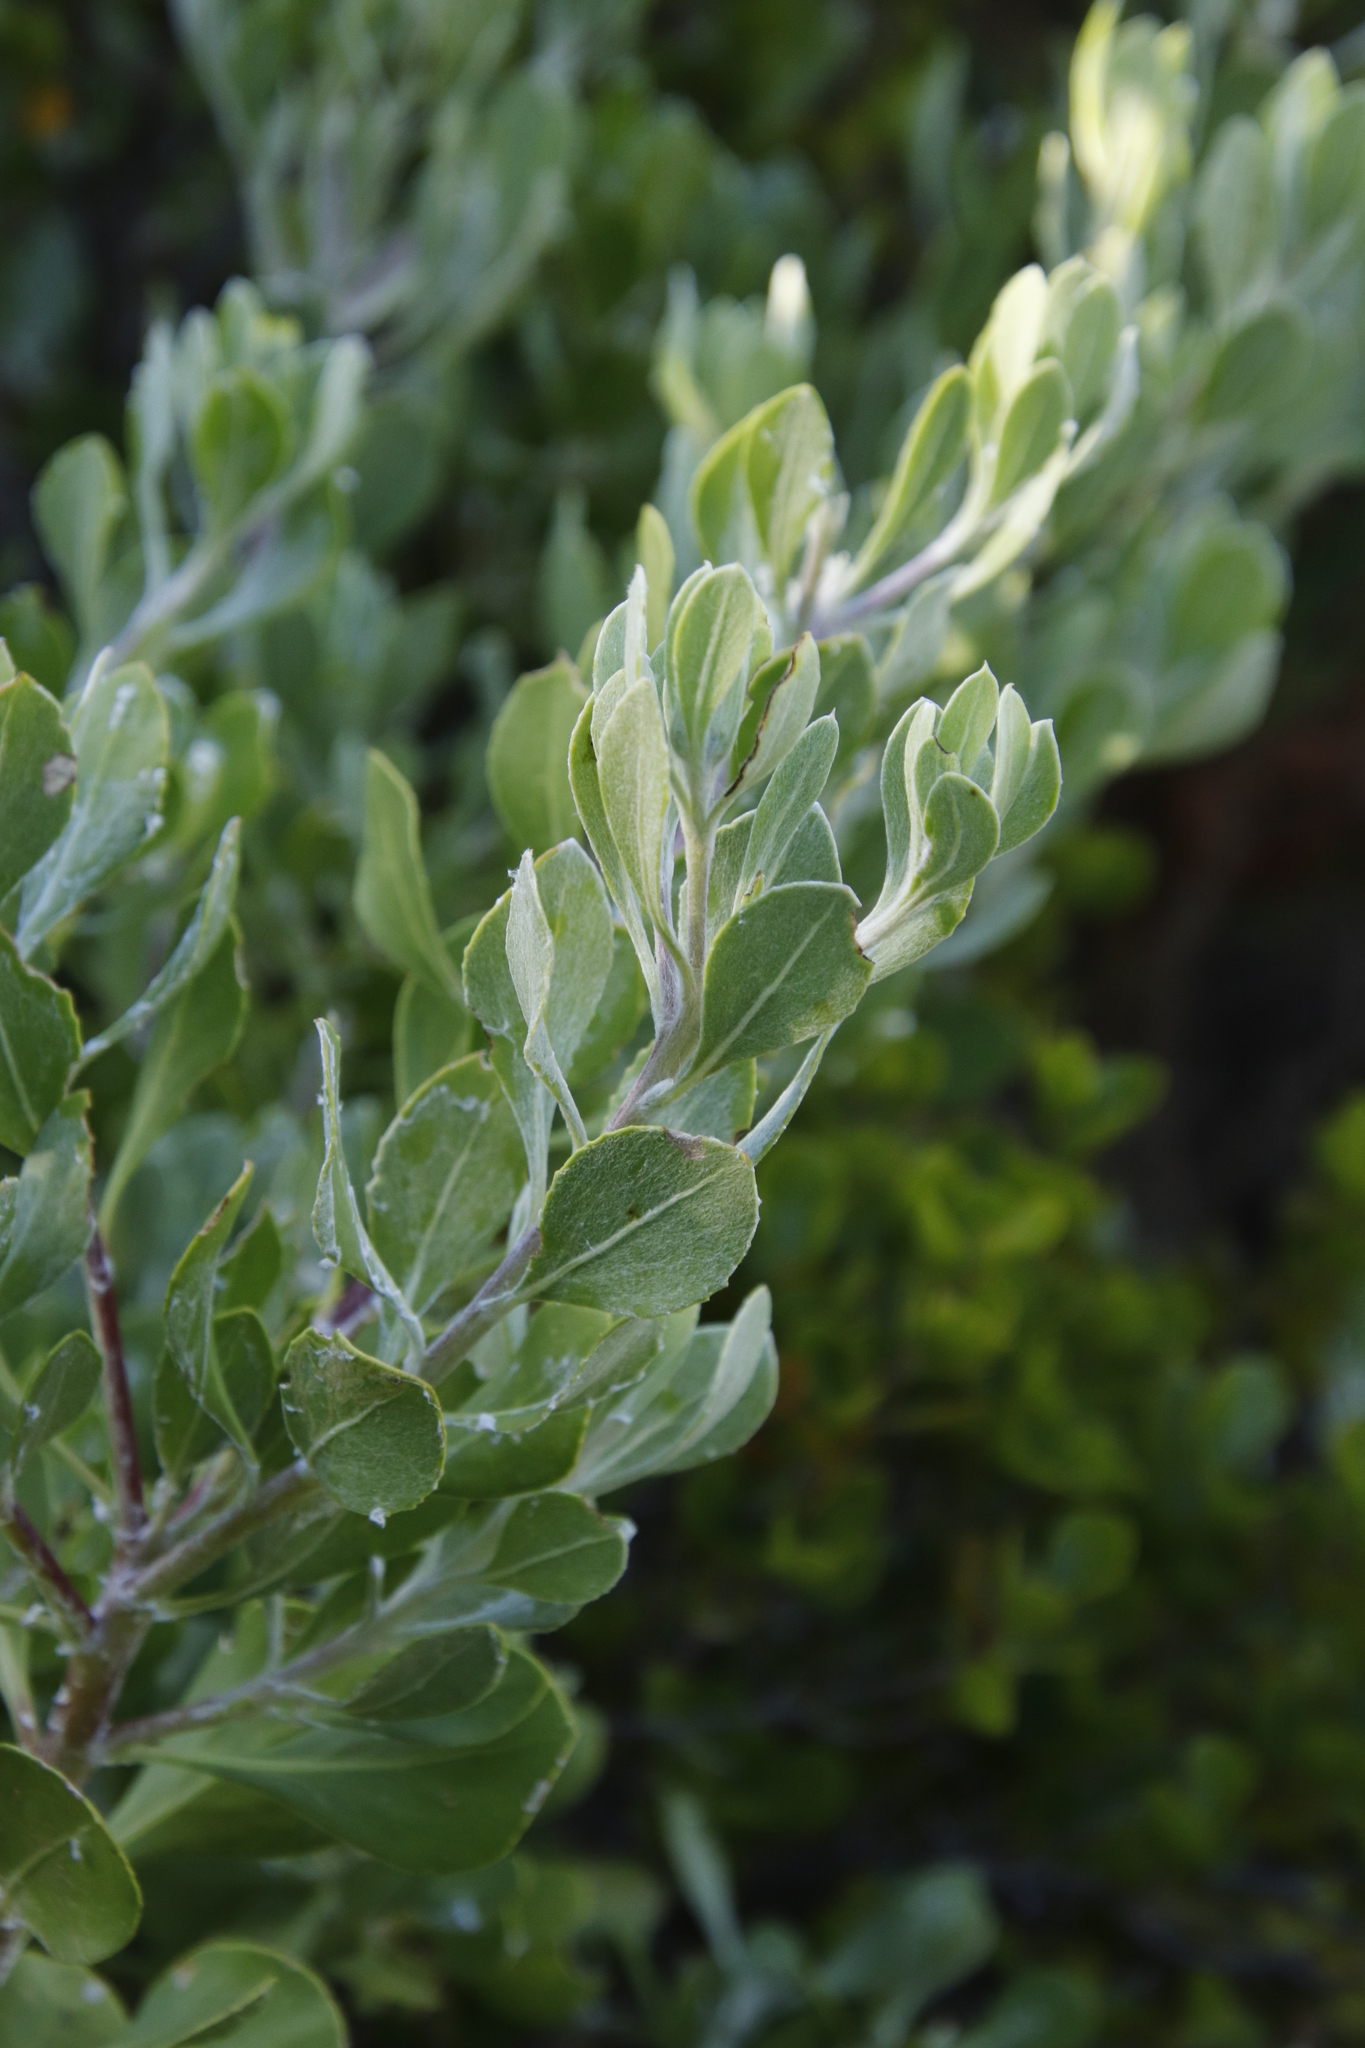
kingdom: Plantae
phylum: Tracheophyta
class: Magnoliopsida
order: Asterales
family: Asteraceae
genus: Osteospermum
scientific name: Osteospermum moniliferum
